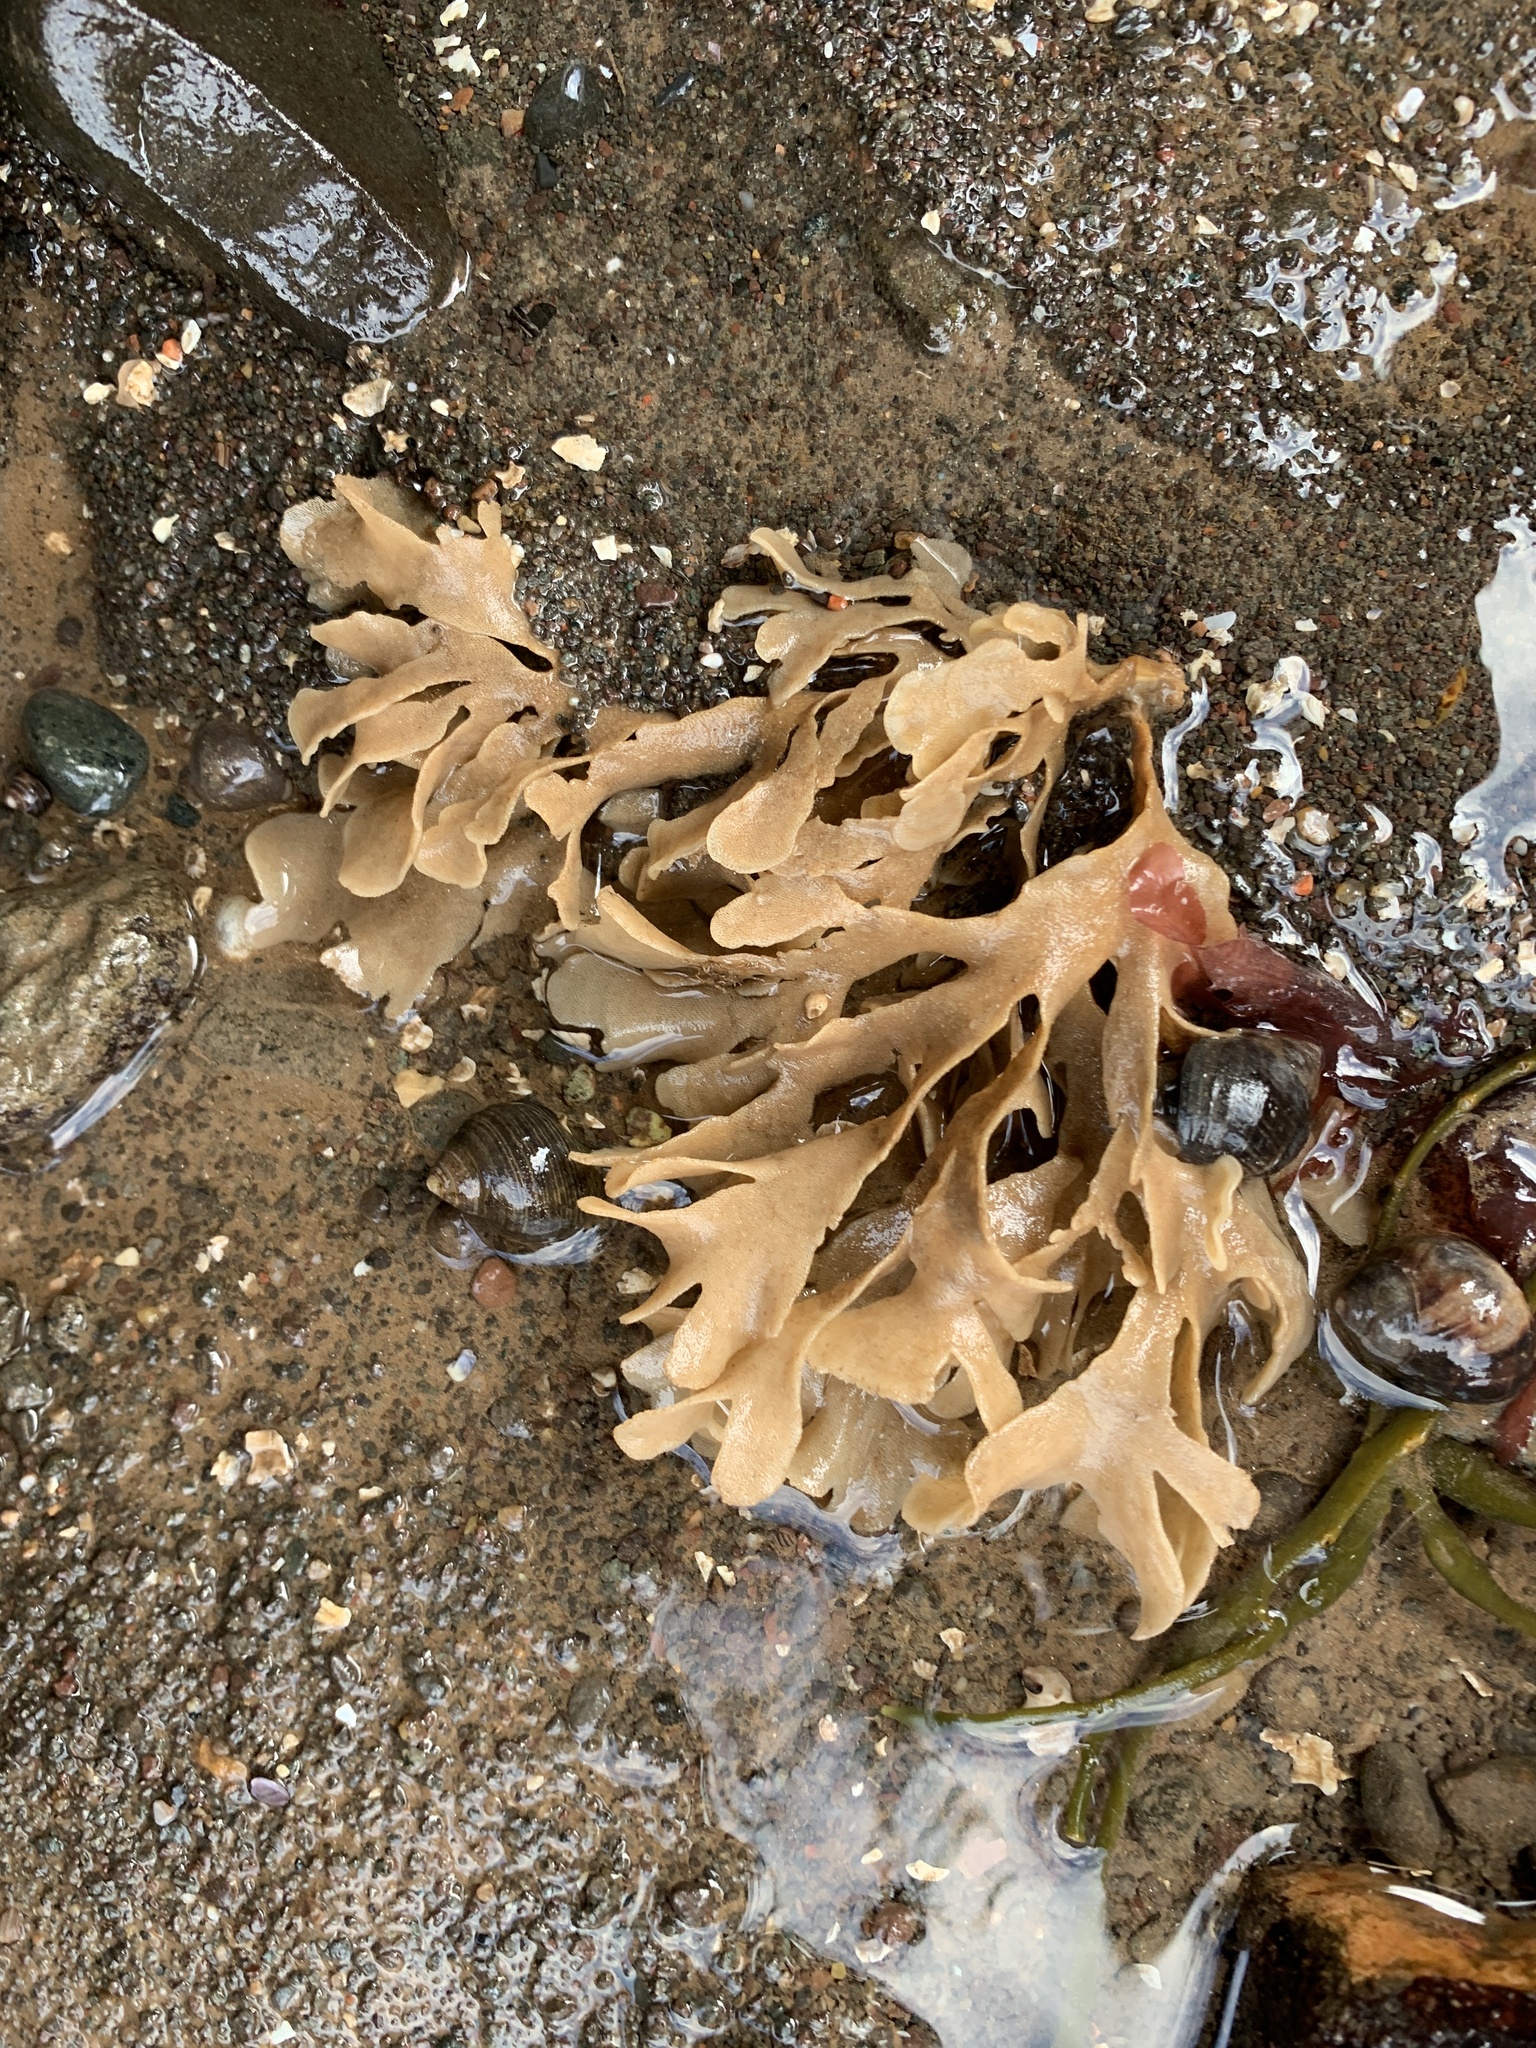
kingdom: Animalia
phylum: Bryozoa
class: Gymnolaemata
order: Cheilostomatida
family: Flustridae
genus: Flustra
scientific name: Flustra foliacea
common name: Hornwrack
